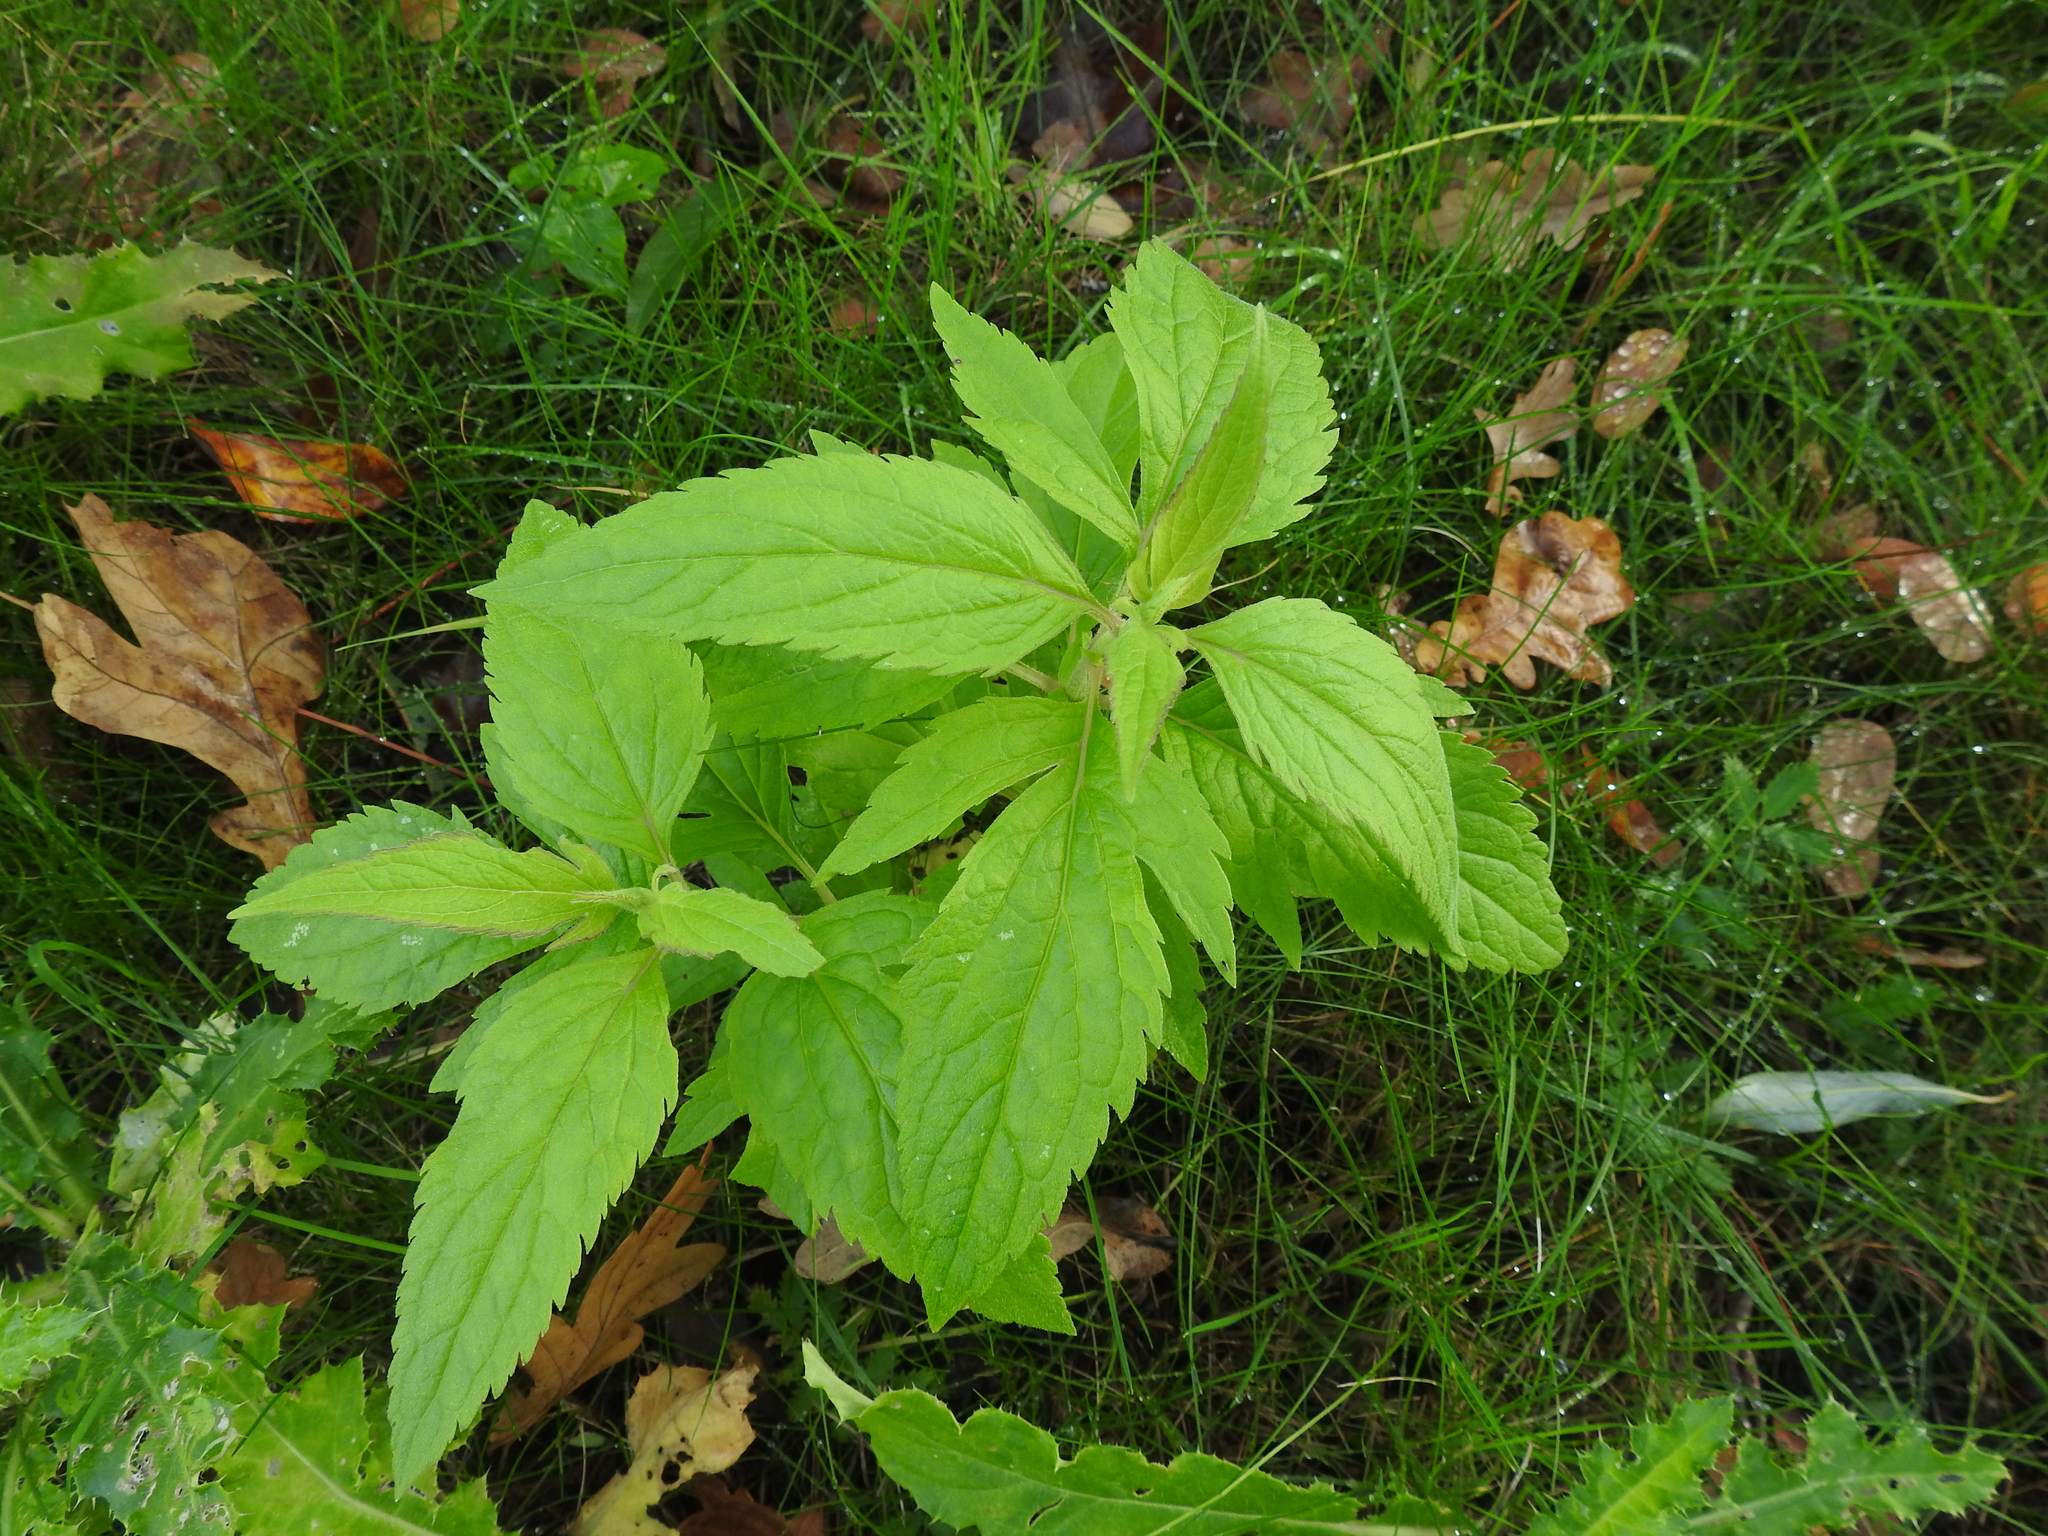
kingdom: Plantae
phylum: Tracheophyta
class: Magnoliopsida
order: Asterales
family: Asteraceae
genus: Eupatorium
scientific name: Eupatorium cannabinum
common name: Hemp-agrimony
